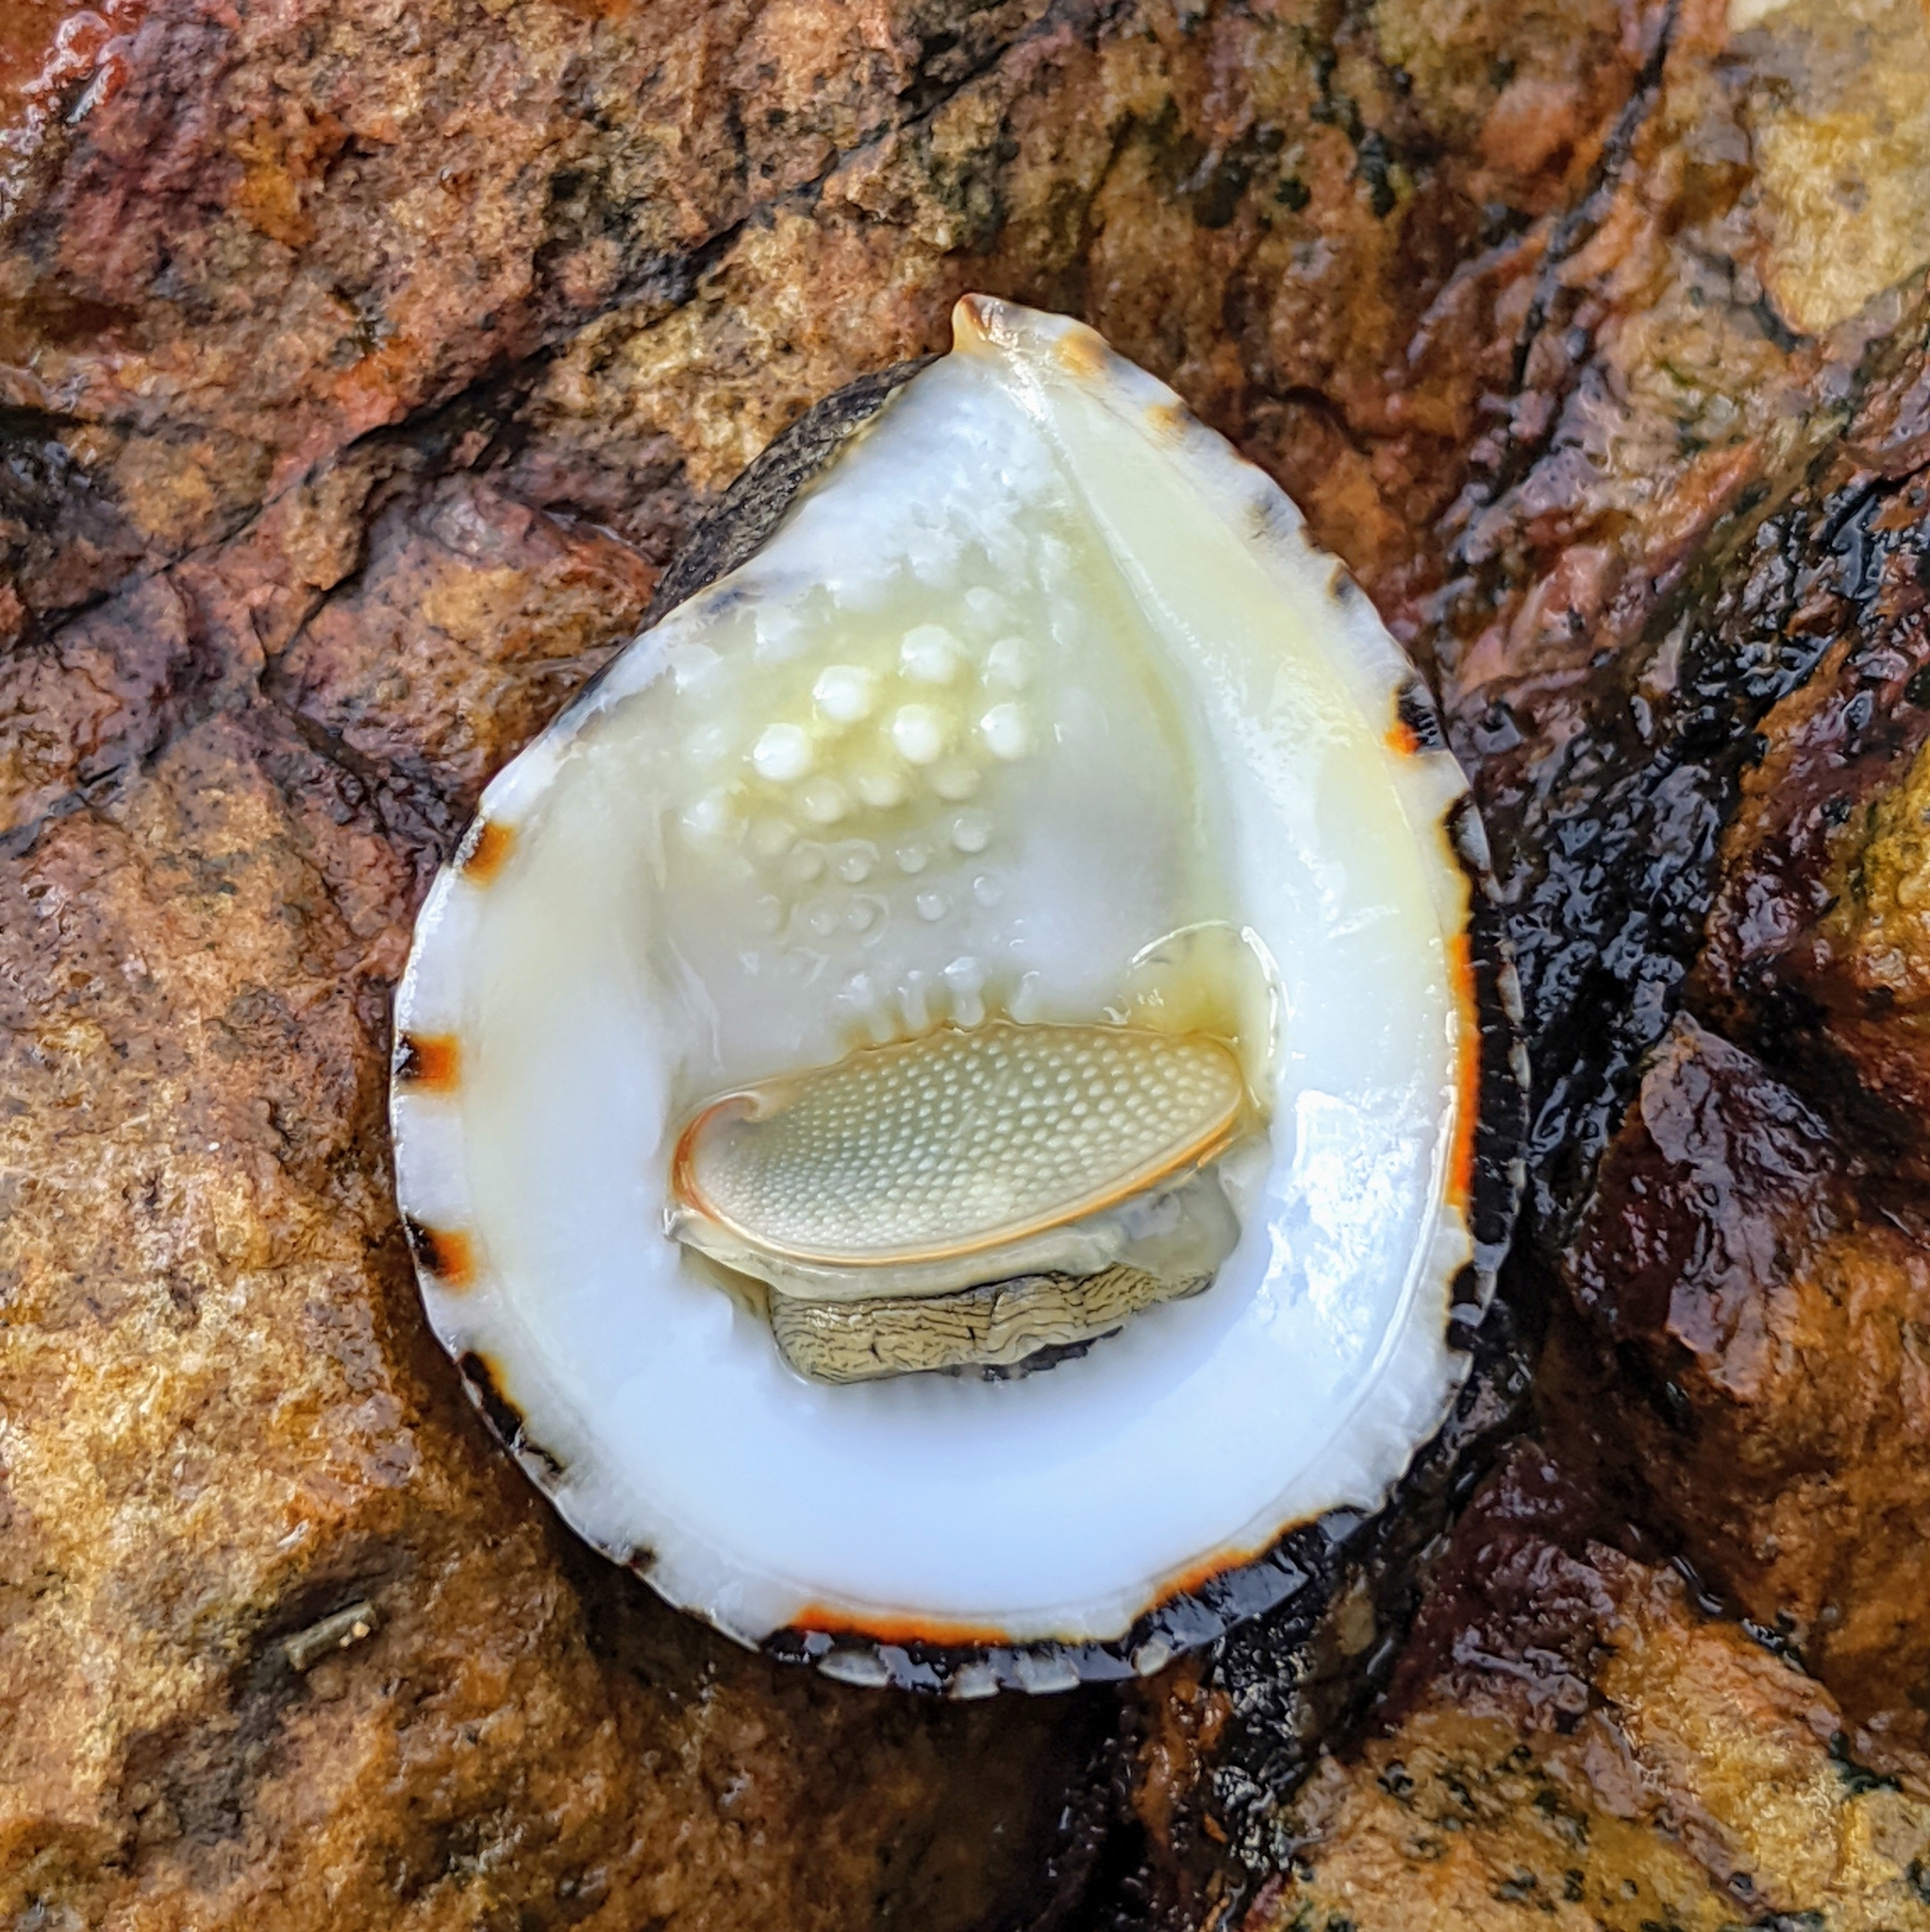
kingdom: Animalia
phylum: Mollusca
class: Gastropoda
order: Cycloneritida
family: Neritidae
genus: Nerita
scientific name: Nerita albicilla
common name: Blotched nerite
